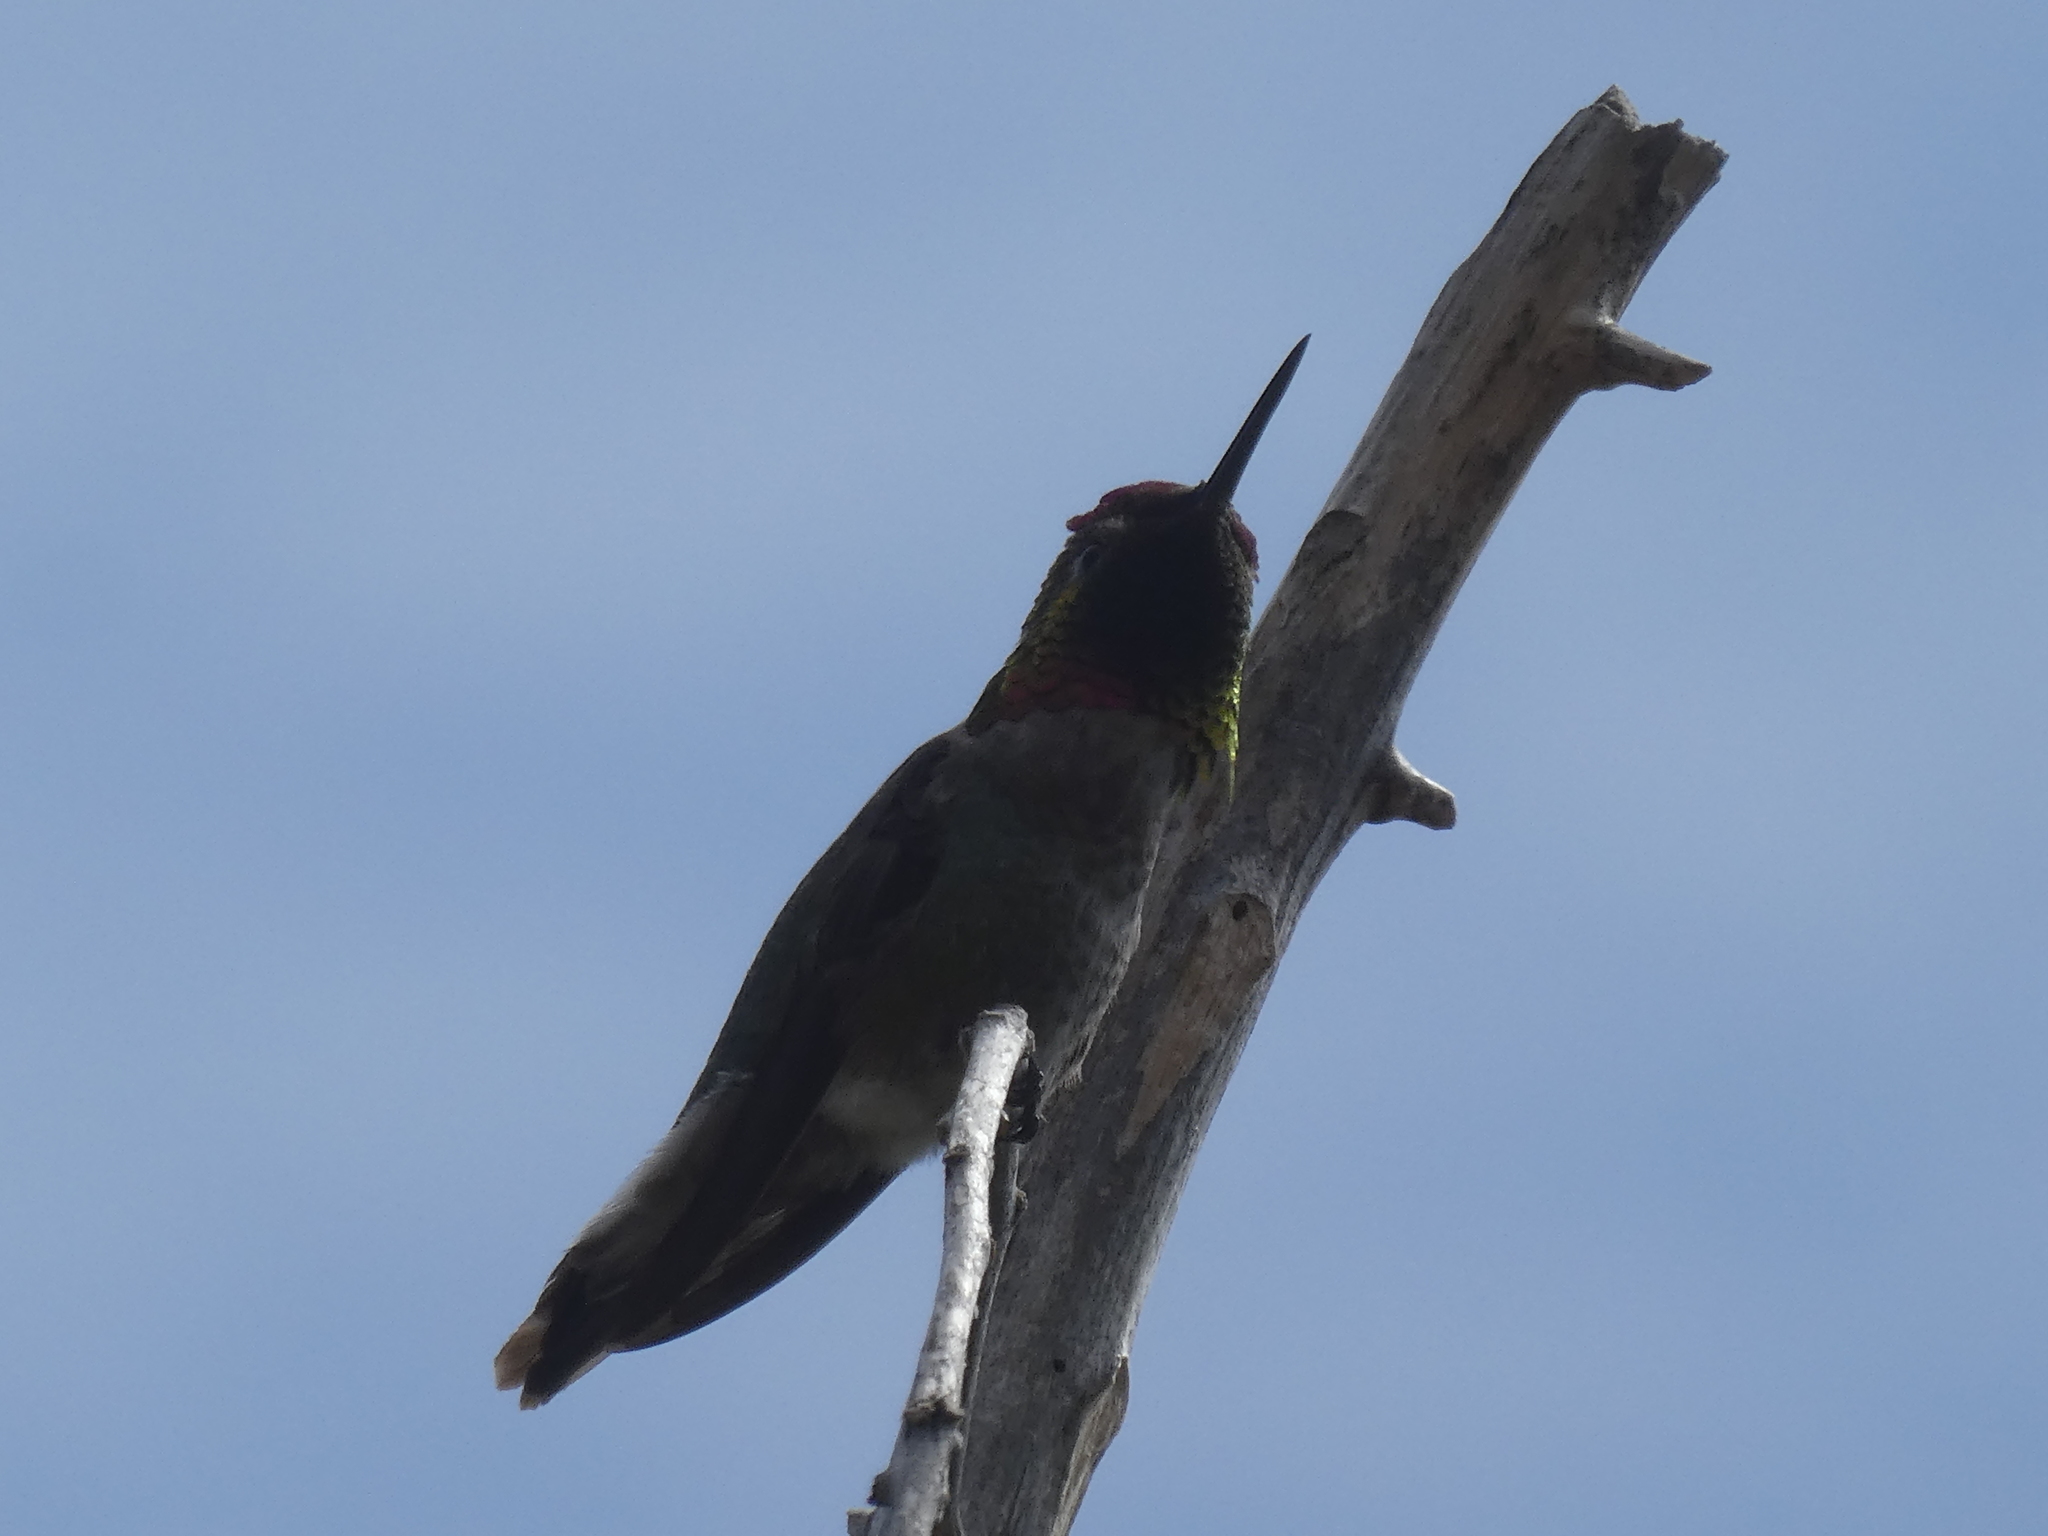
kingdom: Animalia
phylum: Chordata
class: Aves
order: Apodiformes
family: Trochilidae
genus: Calypte
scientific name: Calypte anna
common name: Anna's hummingbird
